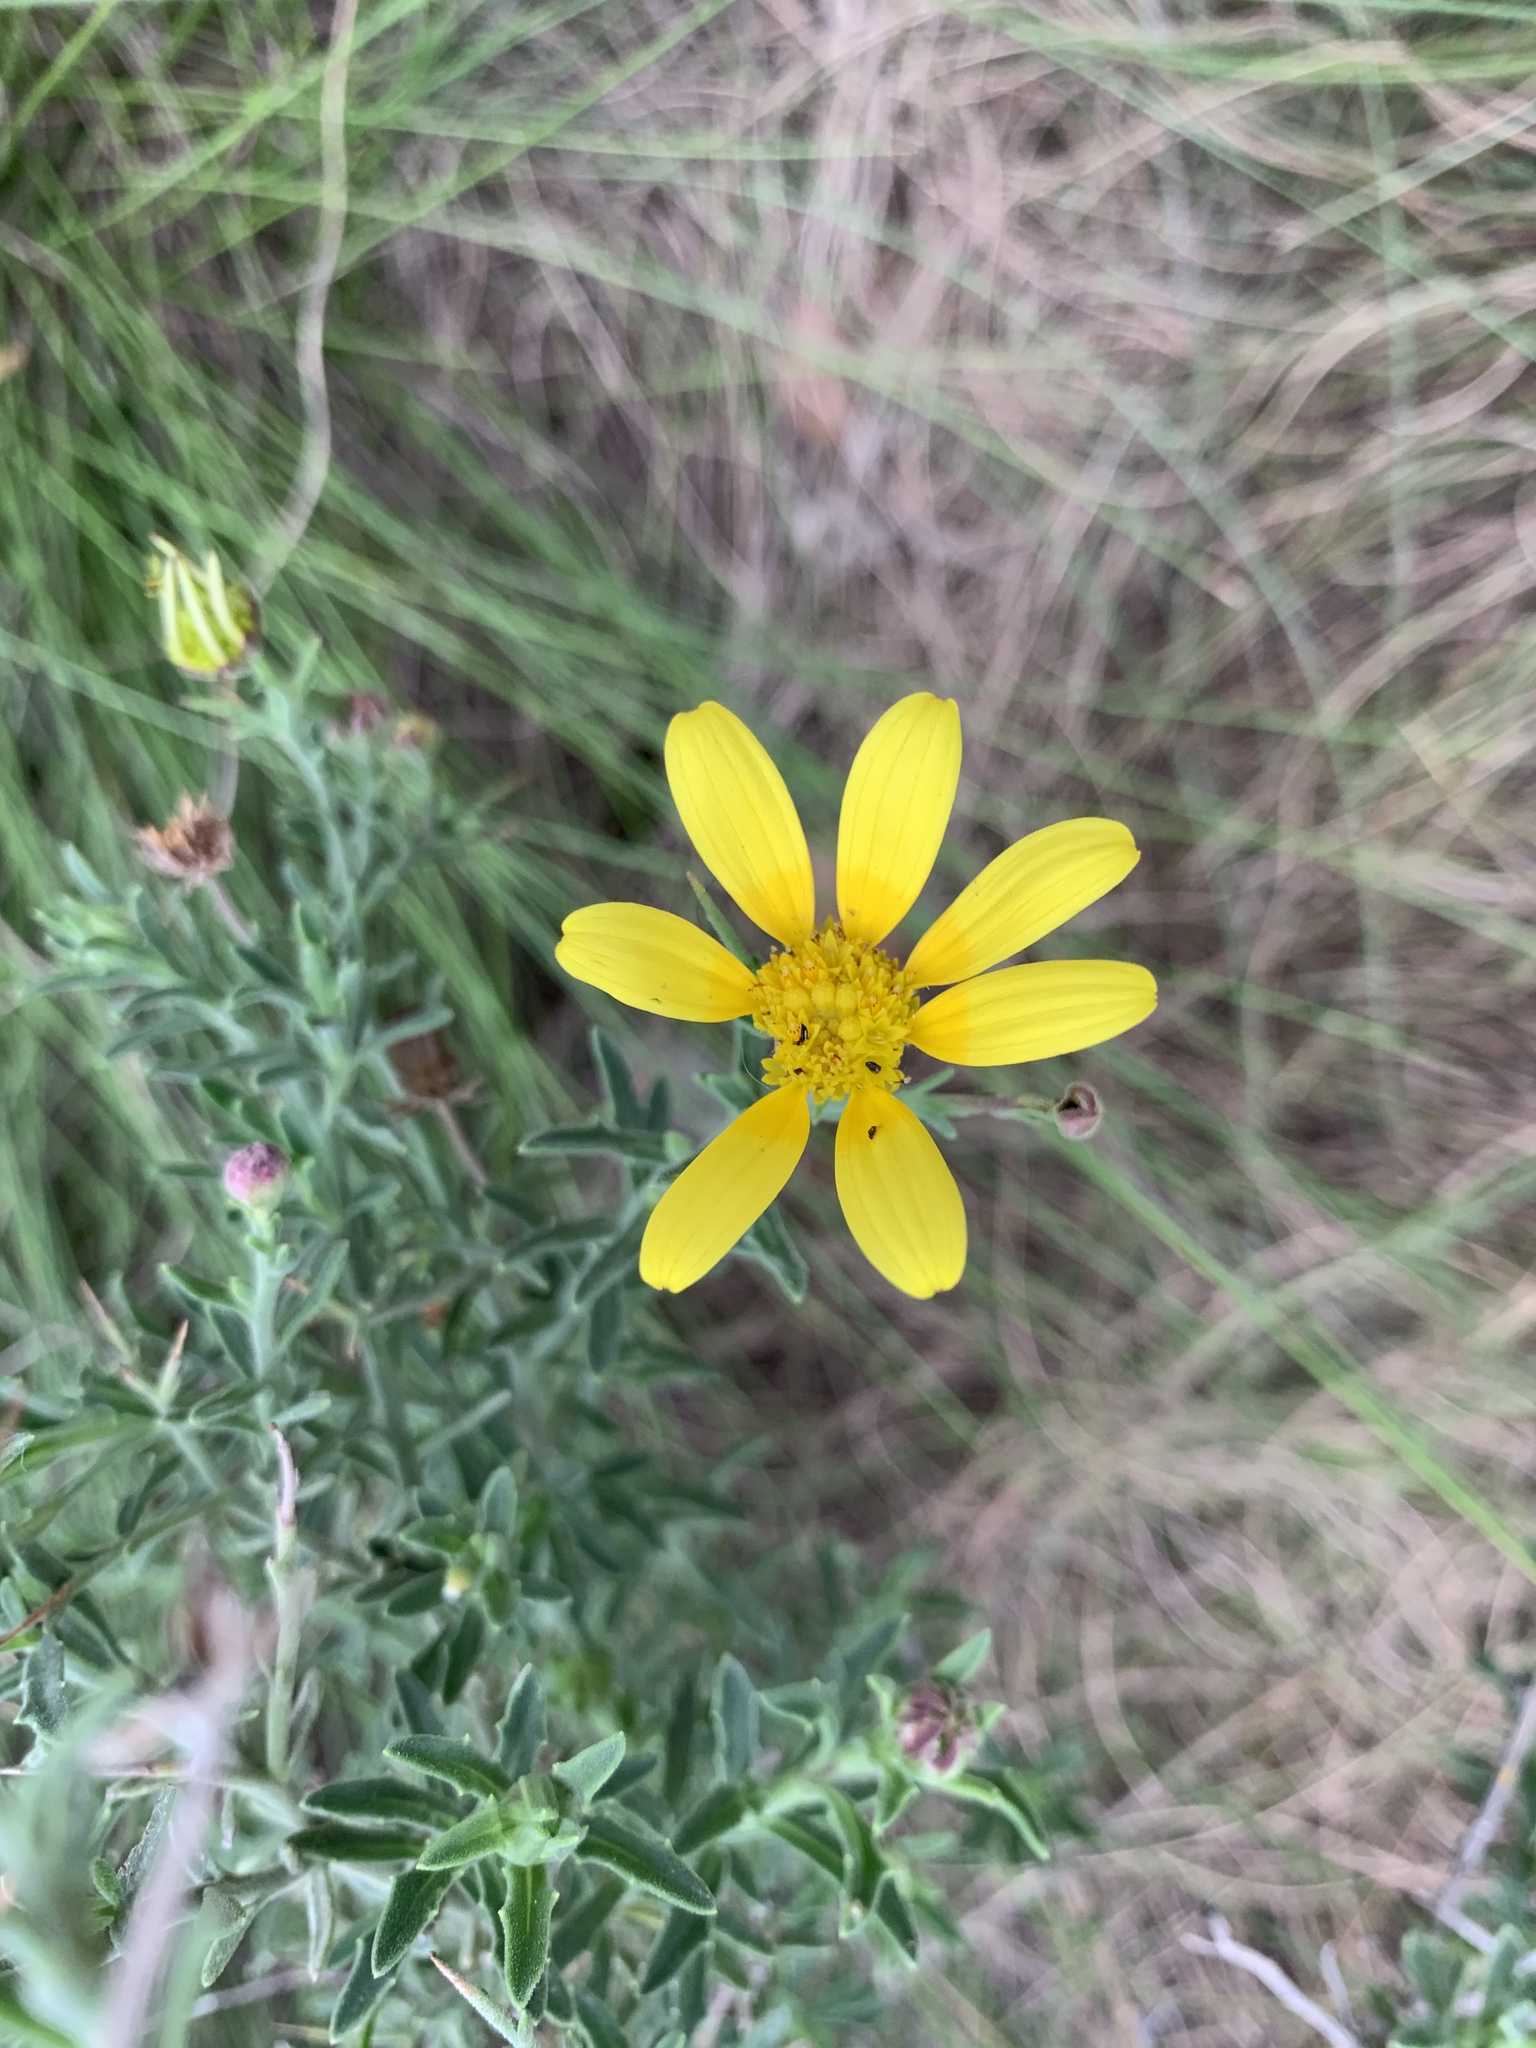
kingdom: Plantae
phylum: Tracheophyta
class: Magnoliopsida
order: Asterales
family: Asteraceae
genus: Osteospermum
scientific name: Osteospermum spinosum
